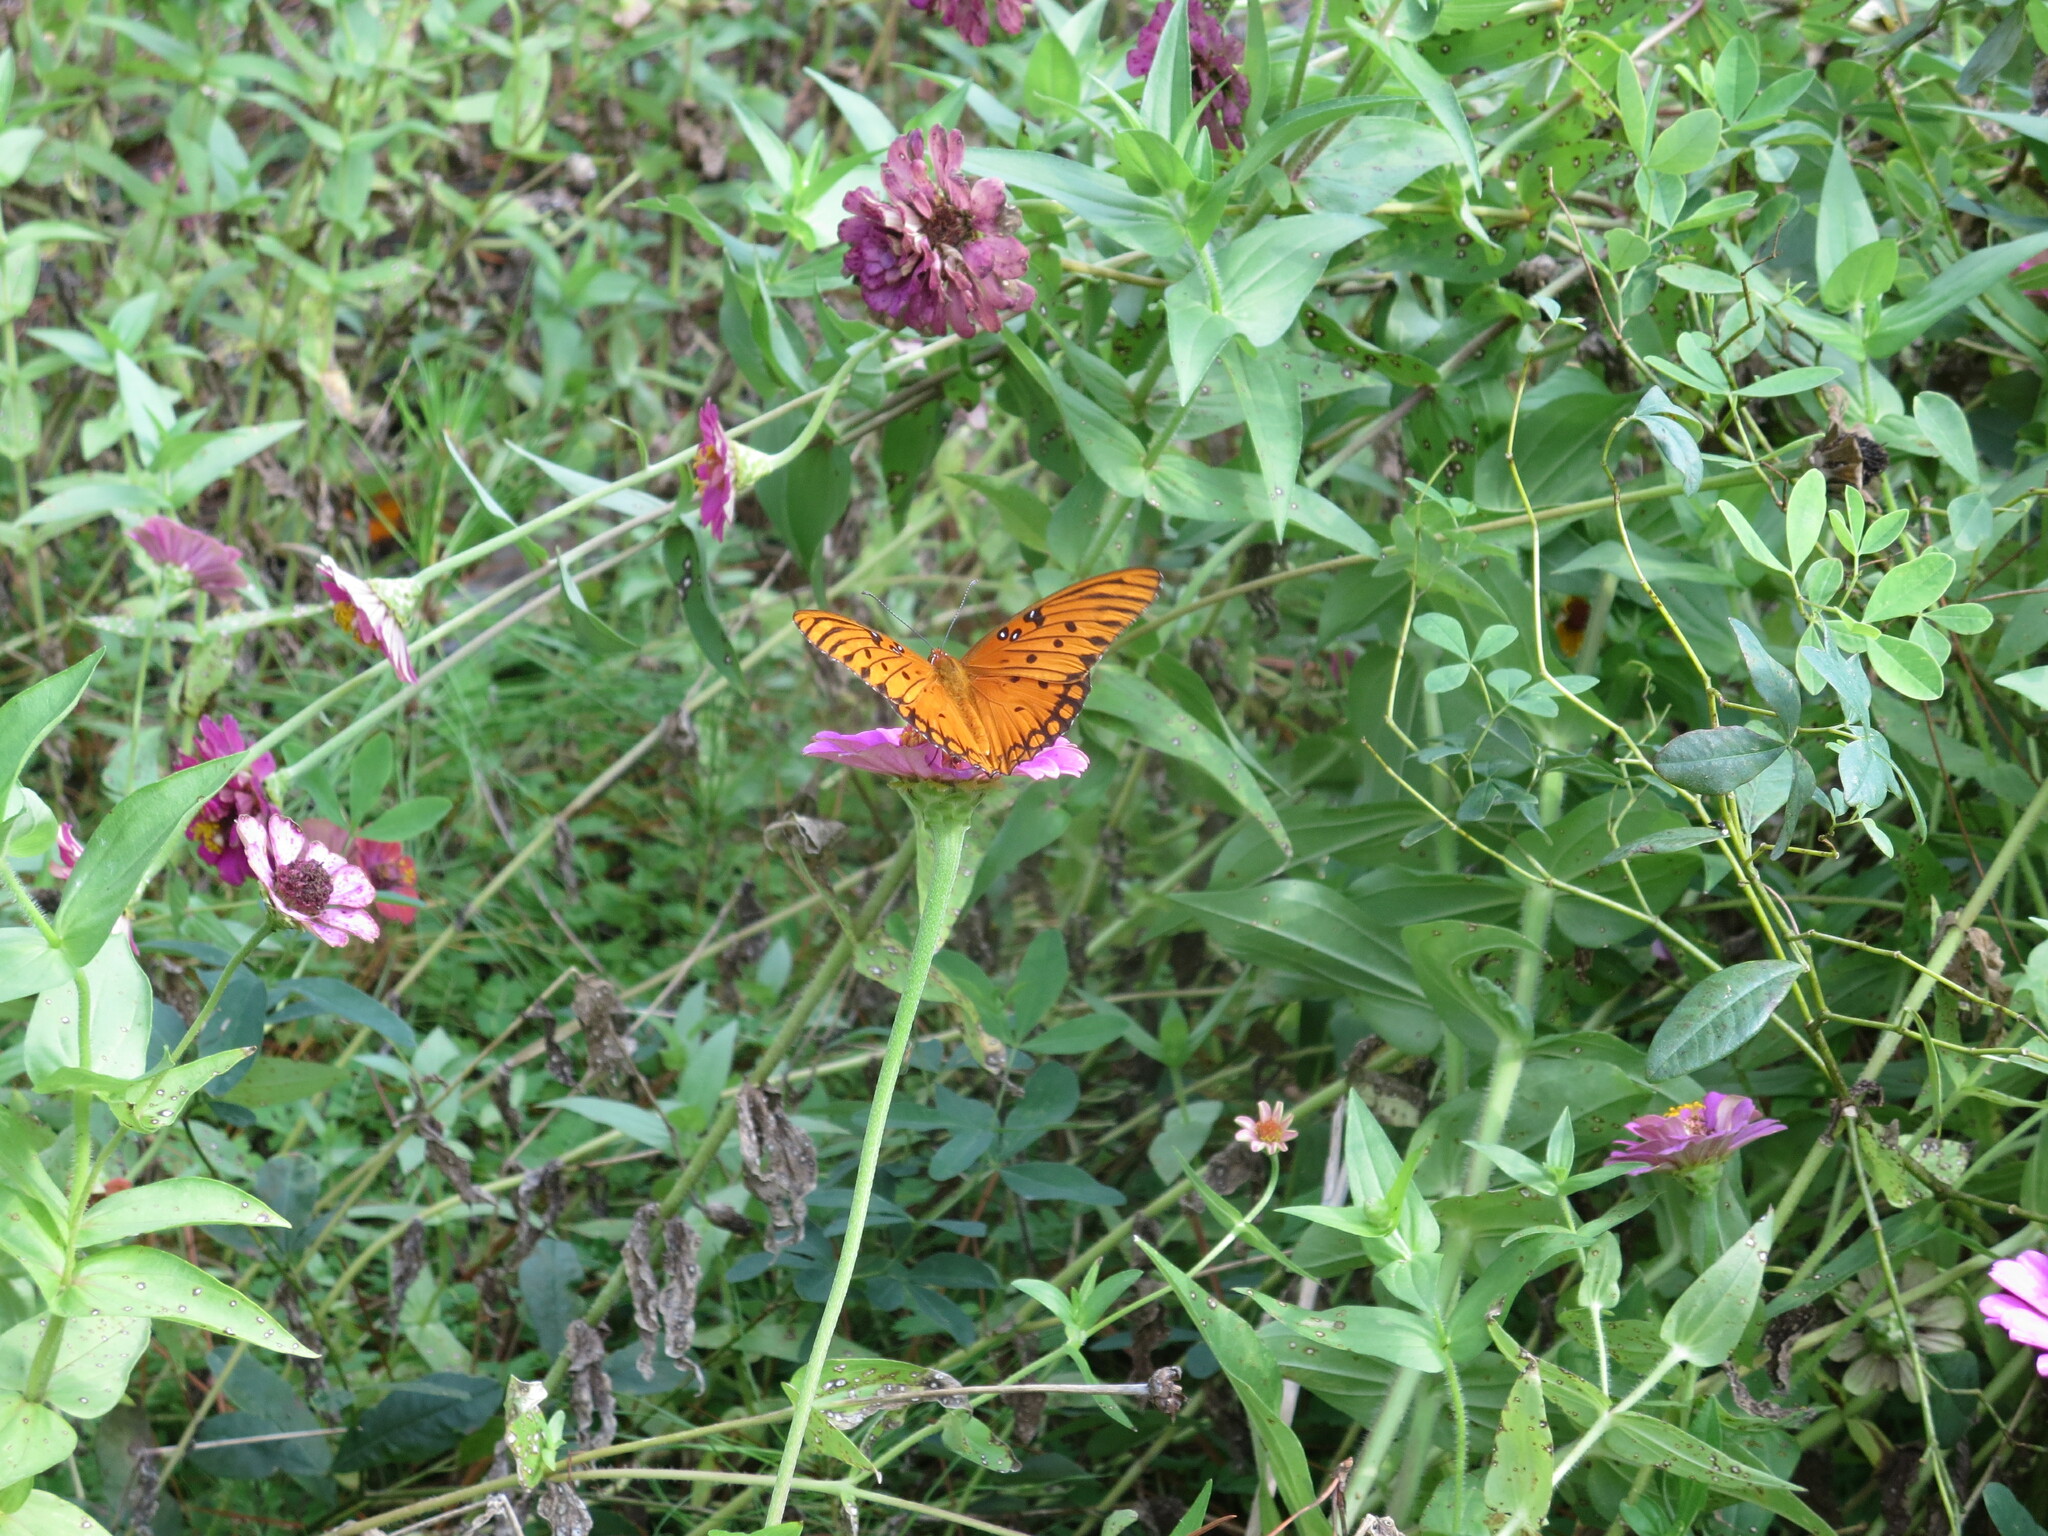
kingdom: Animalia
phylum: Arthropoda
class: Insecta
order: Lepidoptera
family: Nymphalidae
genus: Dione
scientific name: Dione vanillae
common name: Gulf fritillary
